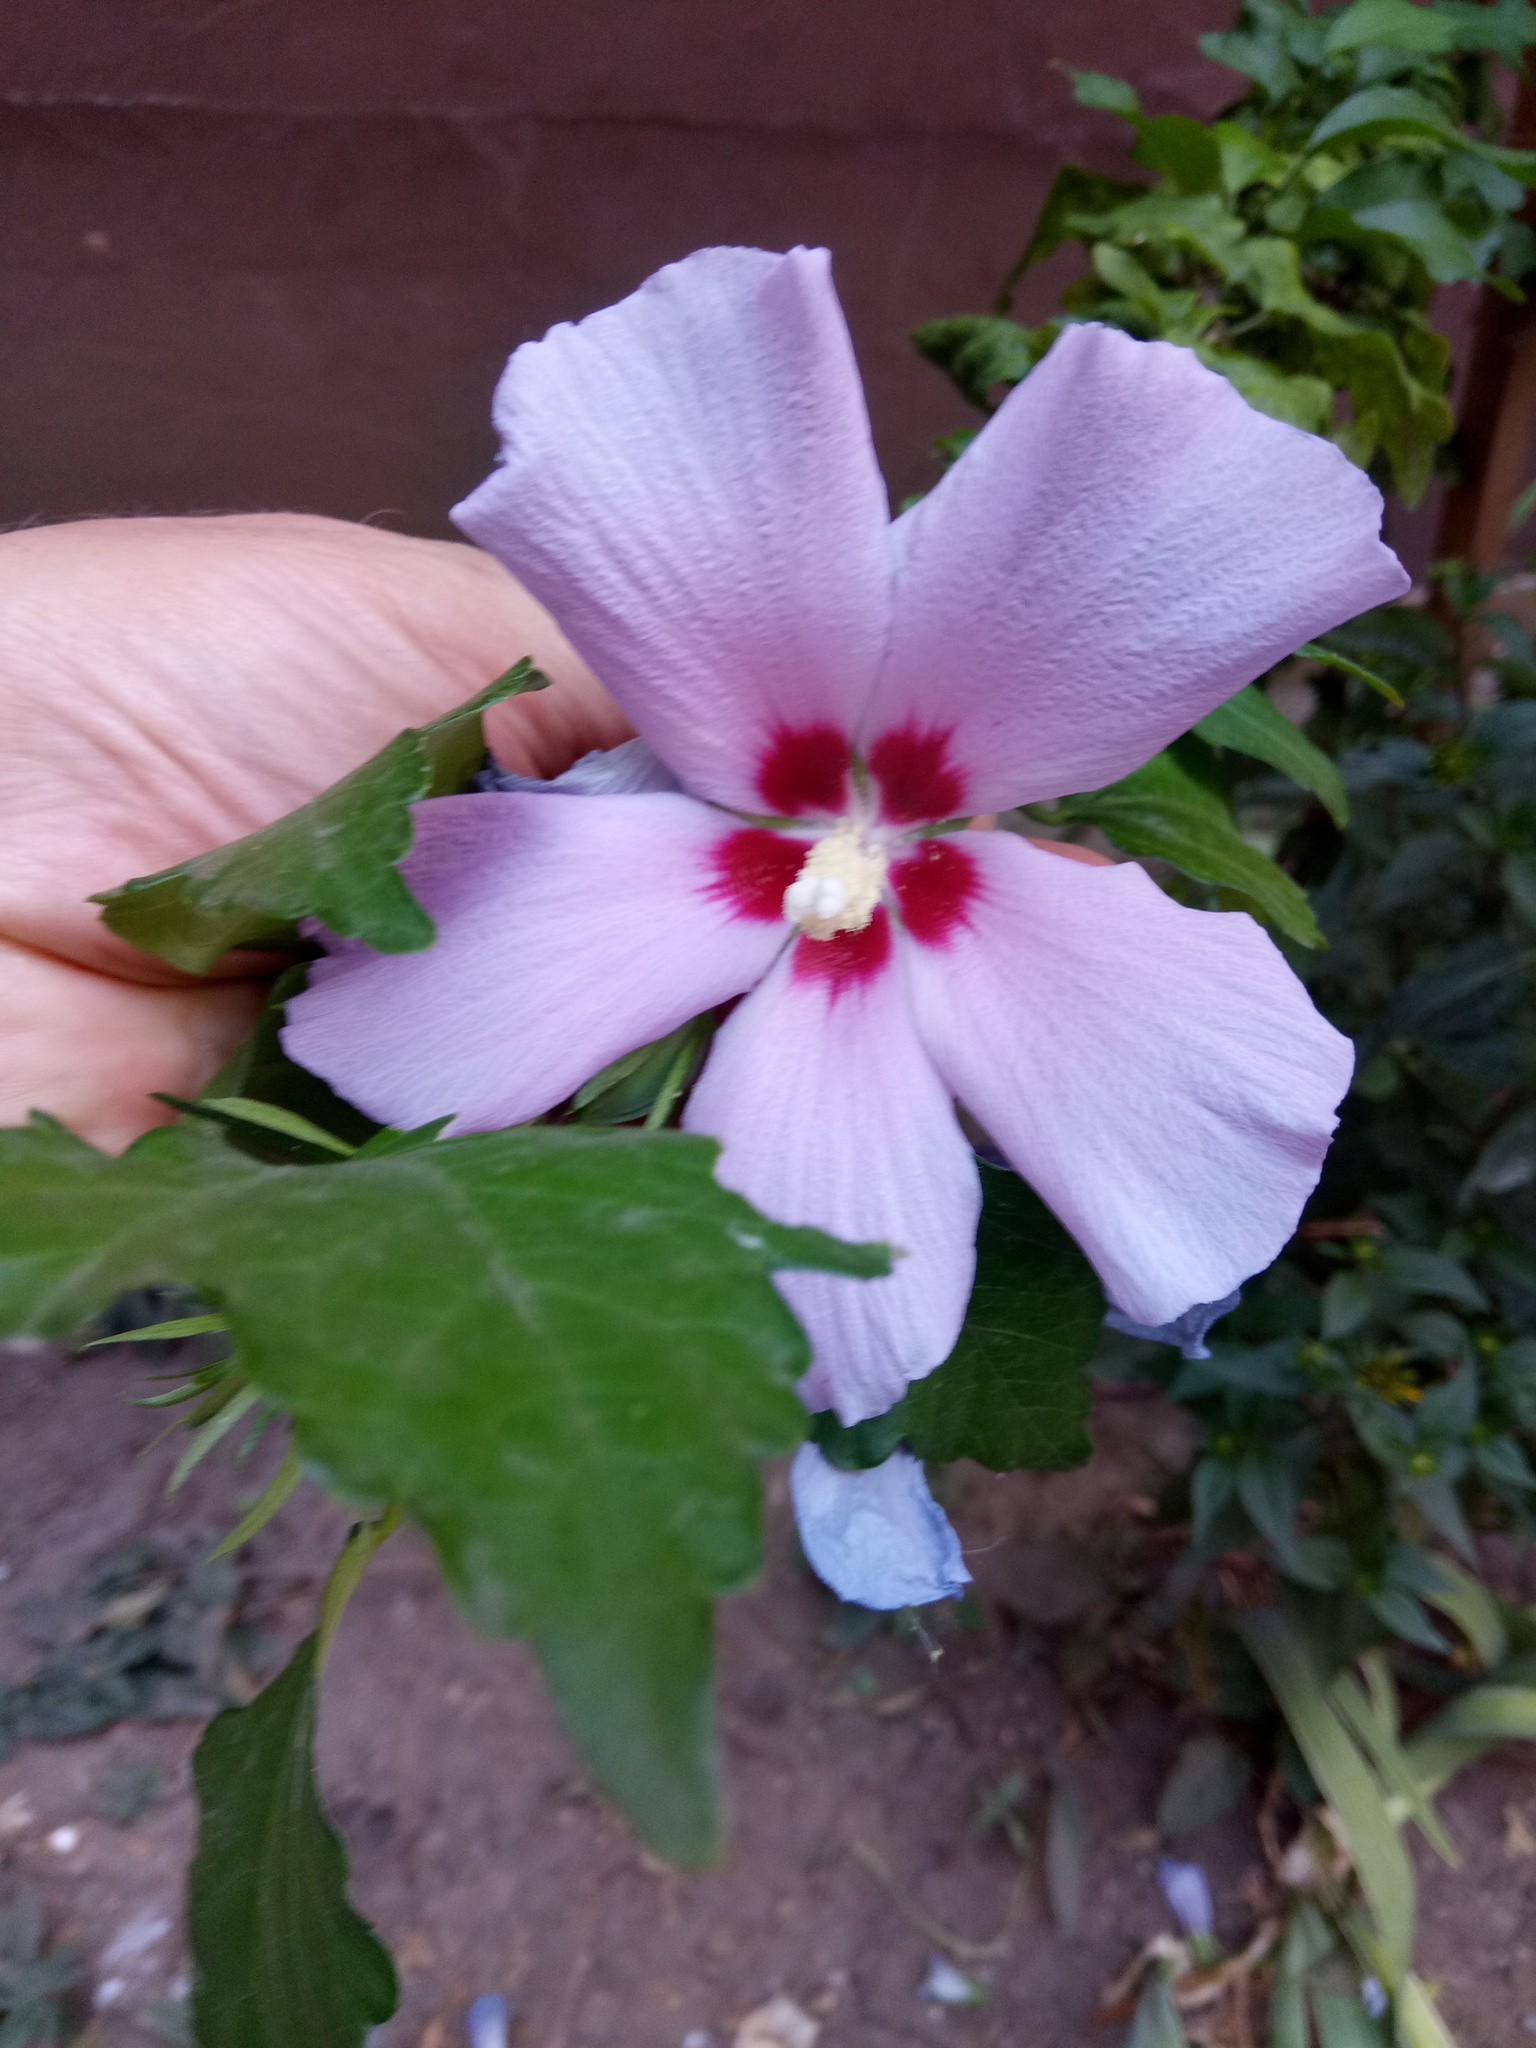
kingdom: Plantae
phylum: Tracheophyta
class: Magnoliopsida
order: Malvales
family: Malvaceae
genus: Hibiscus
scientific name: Hibiscus syriacus
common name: Syrian ketmia
